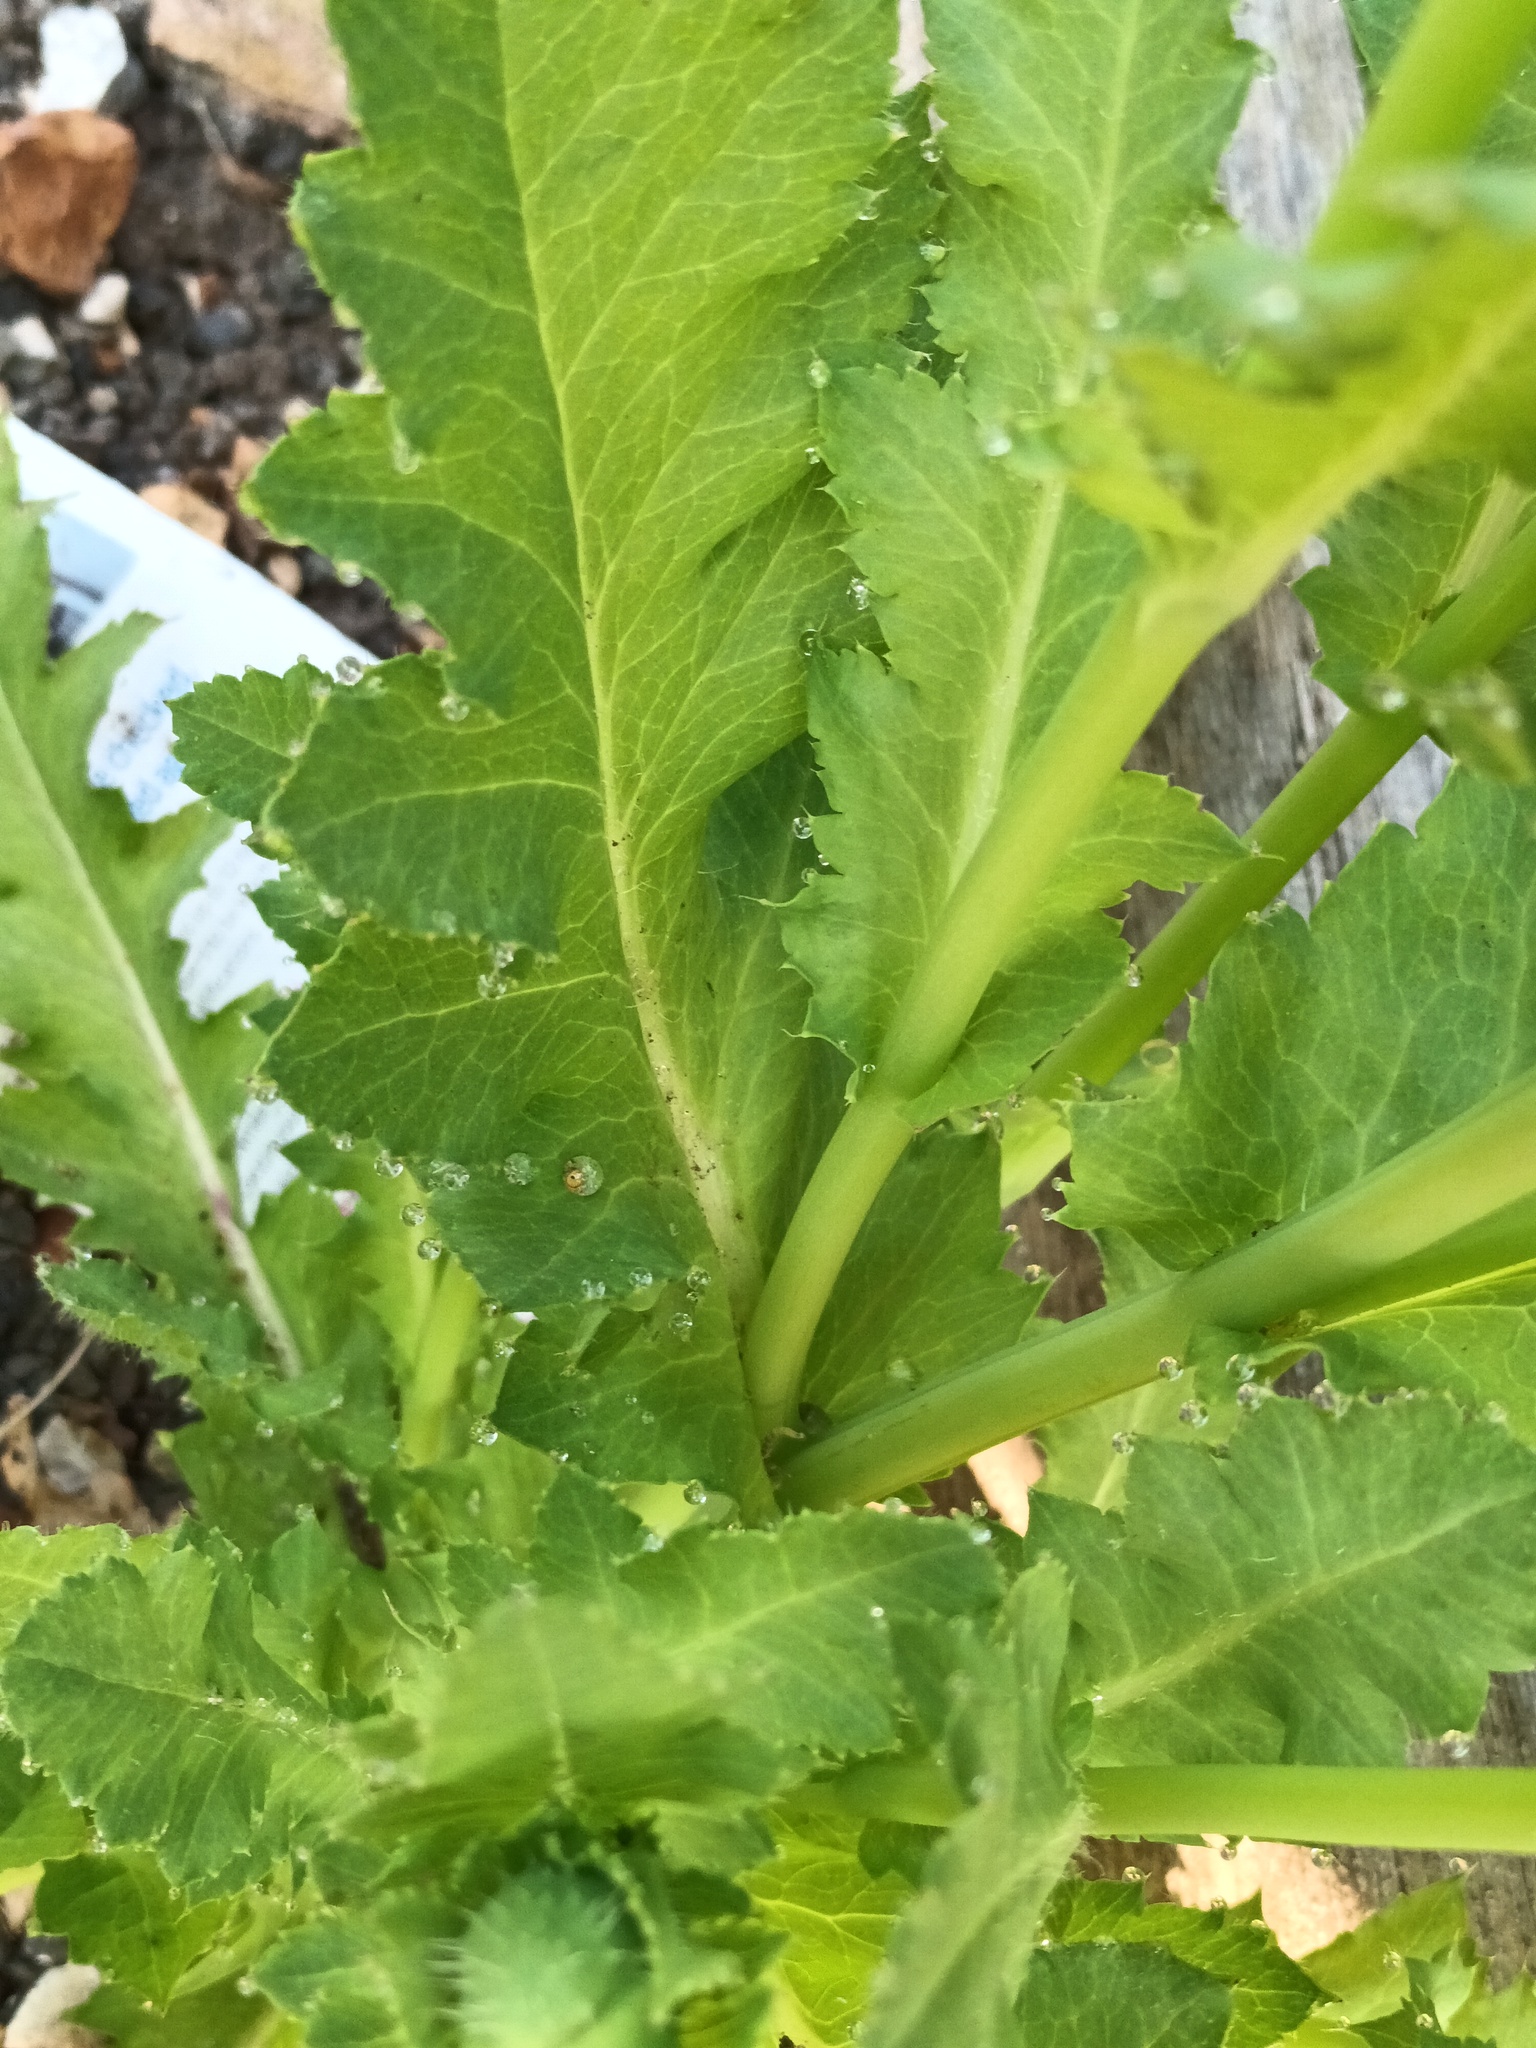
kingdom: Plantae
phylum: Tracheophyta
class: Magnoliopsida
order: Ranunculales
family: Papaveraceae
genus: Papaver
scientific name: Papaver somniferum
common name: Opium poppy
